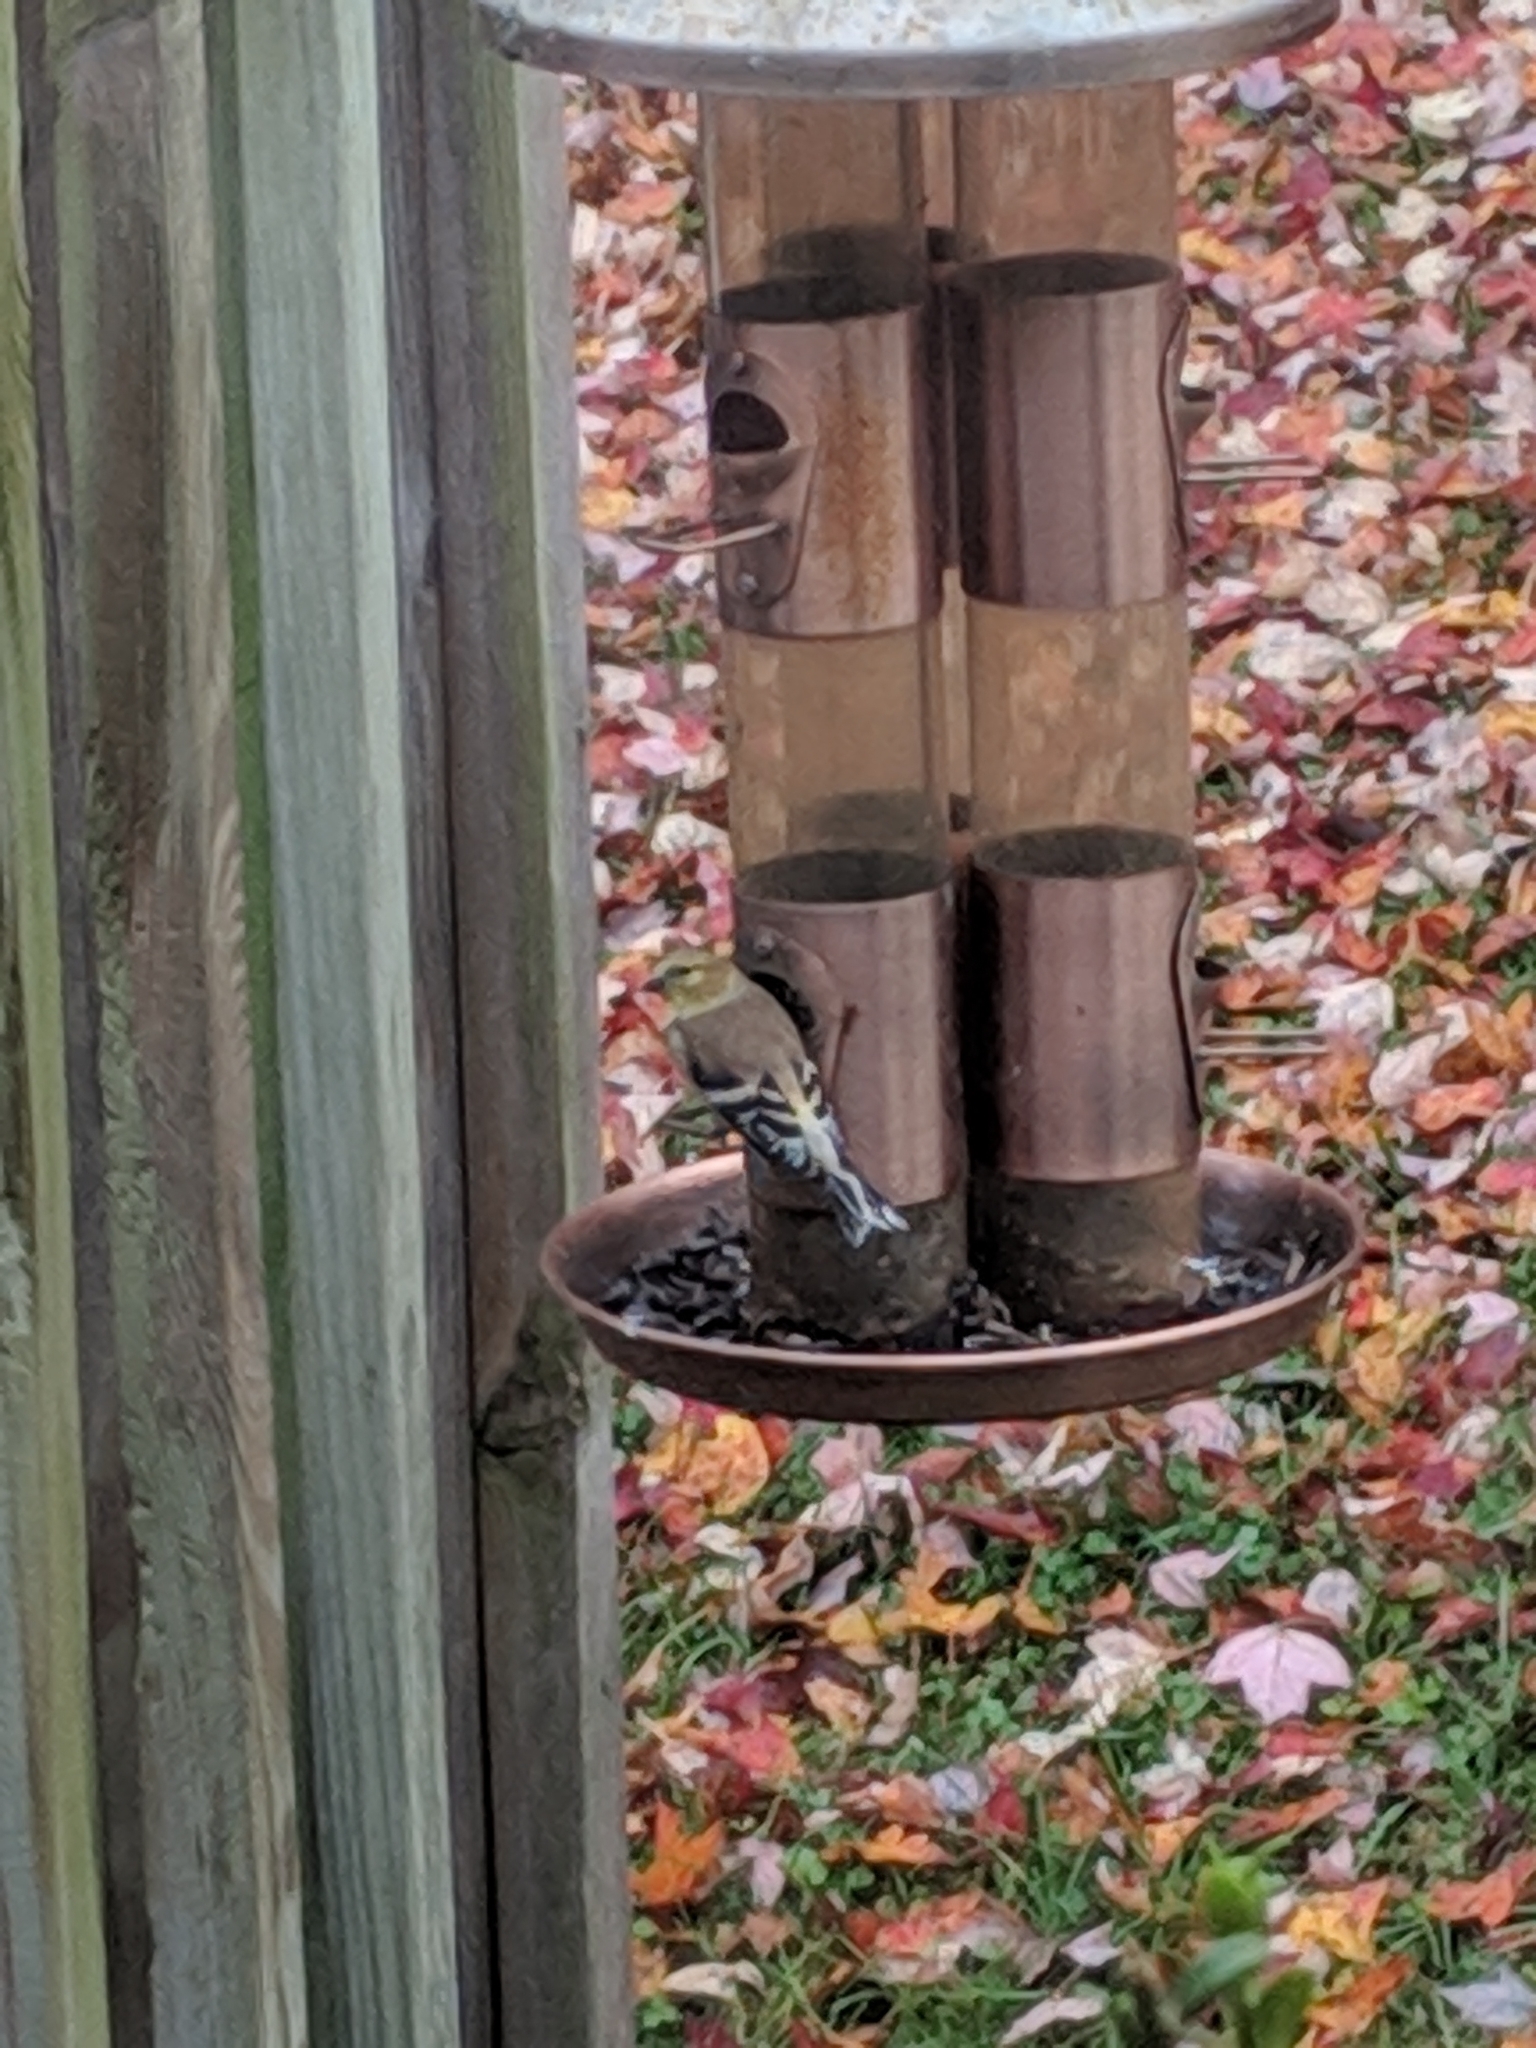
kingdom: Animalia
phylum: Chordata
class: Aves
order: Passeriformes
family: Fringillidae
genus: Spinus
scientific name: Spinus tristis
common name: American goldfinch
